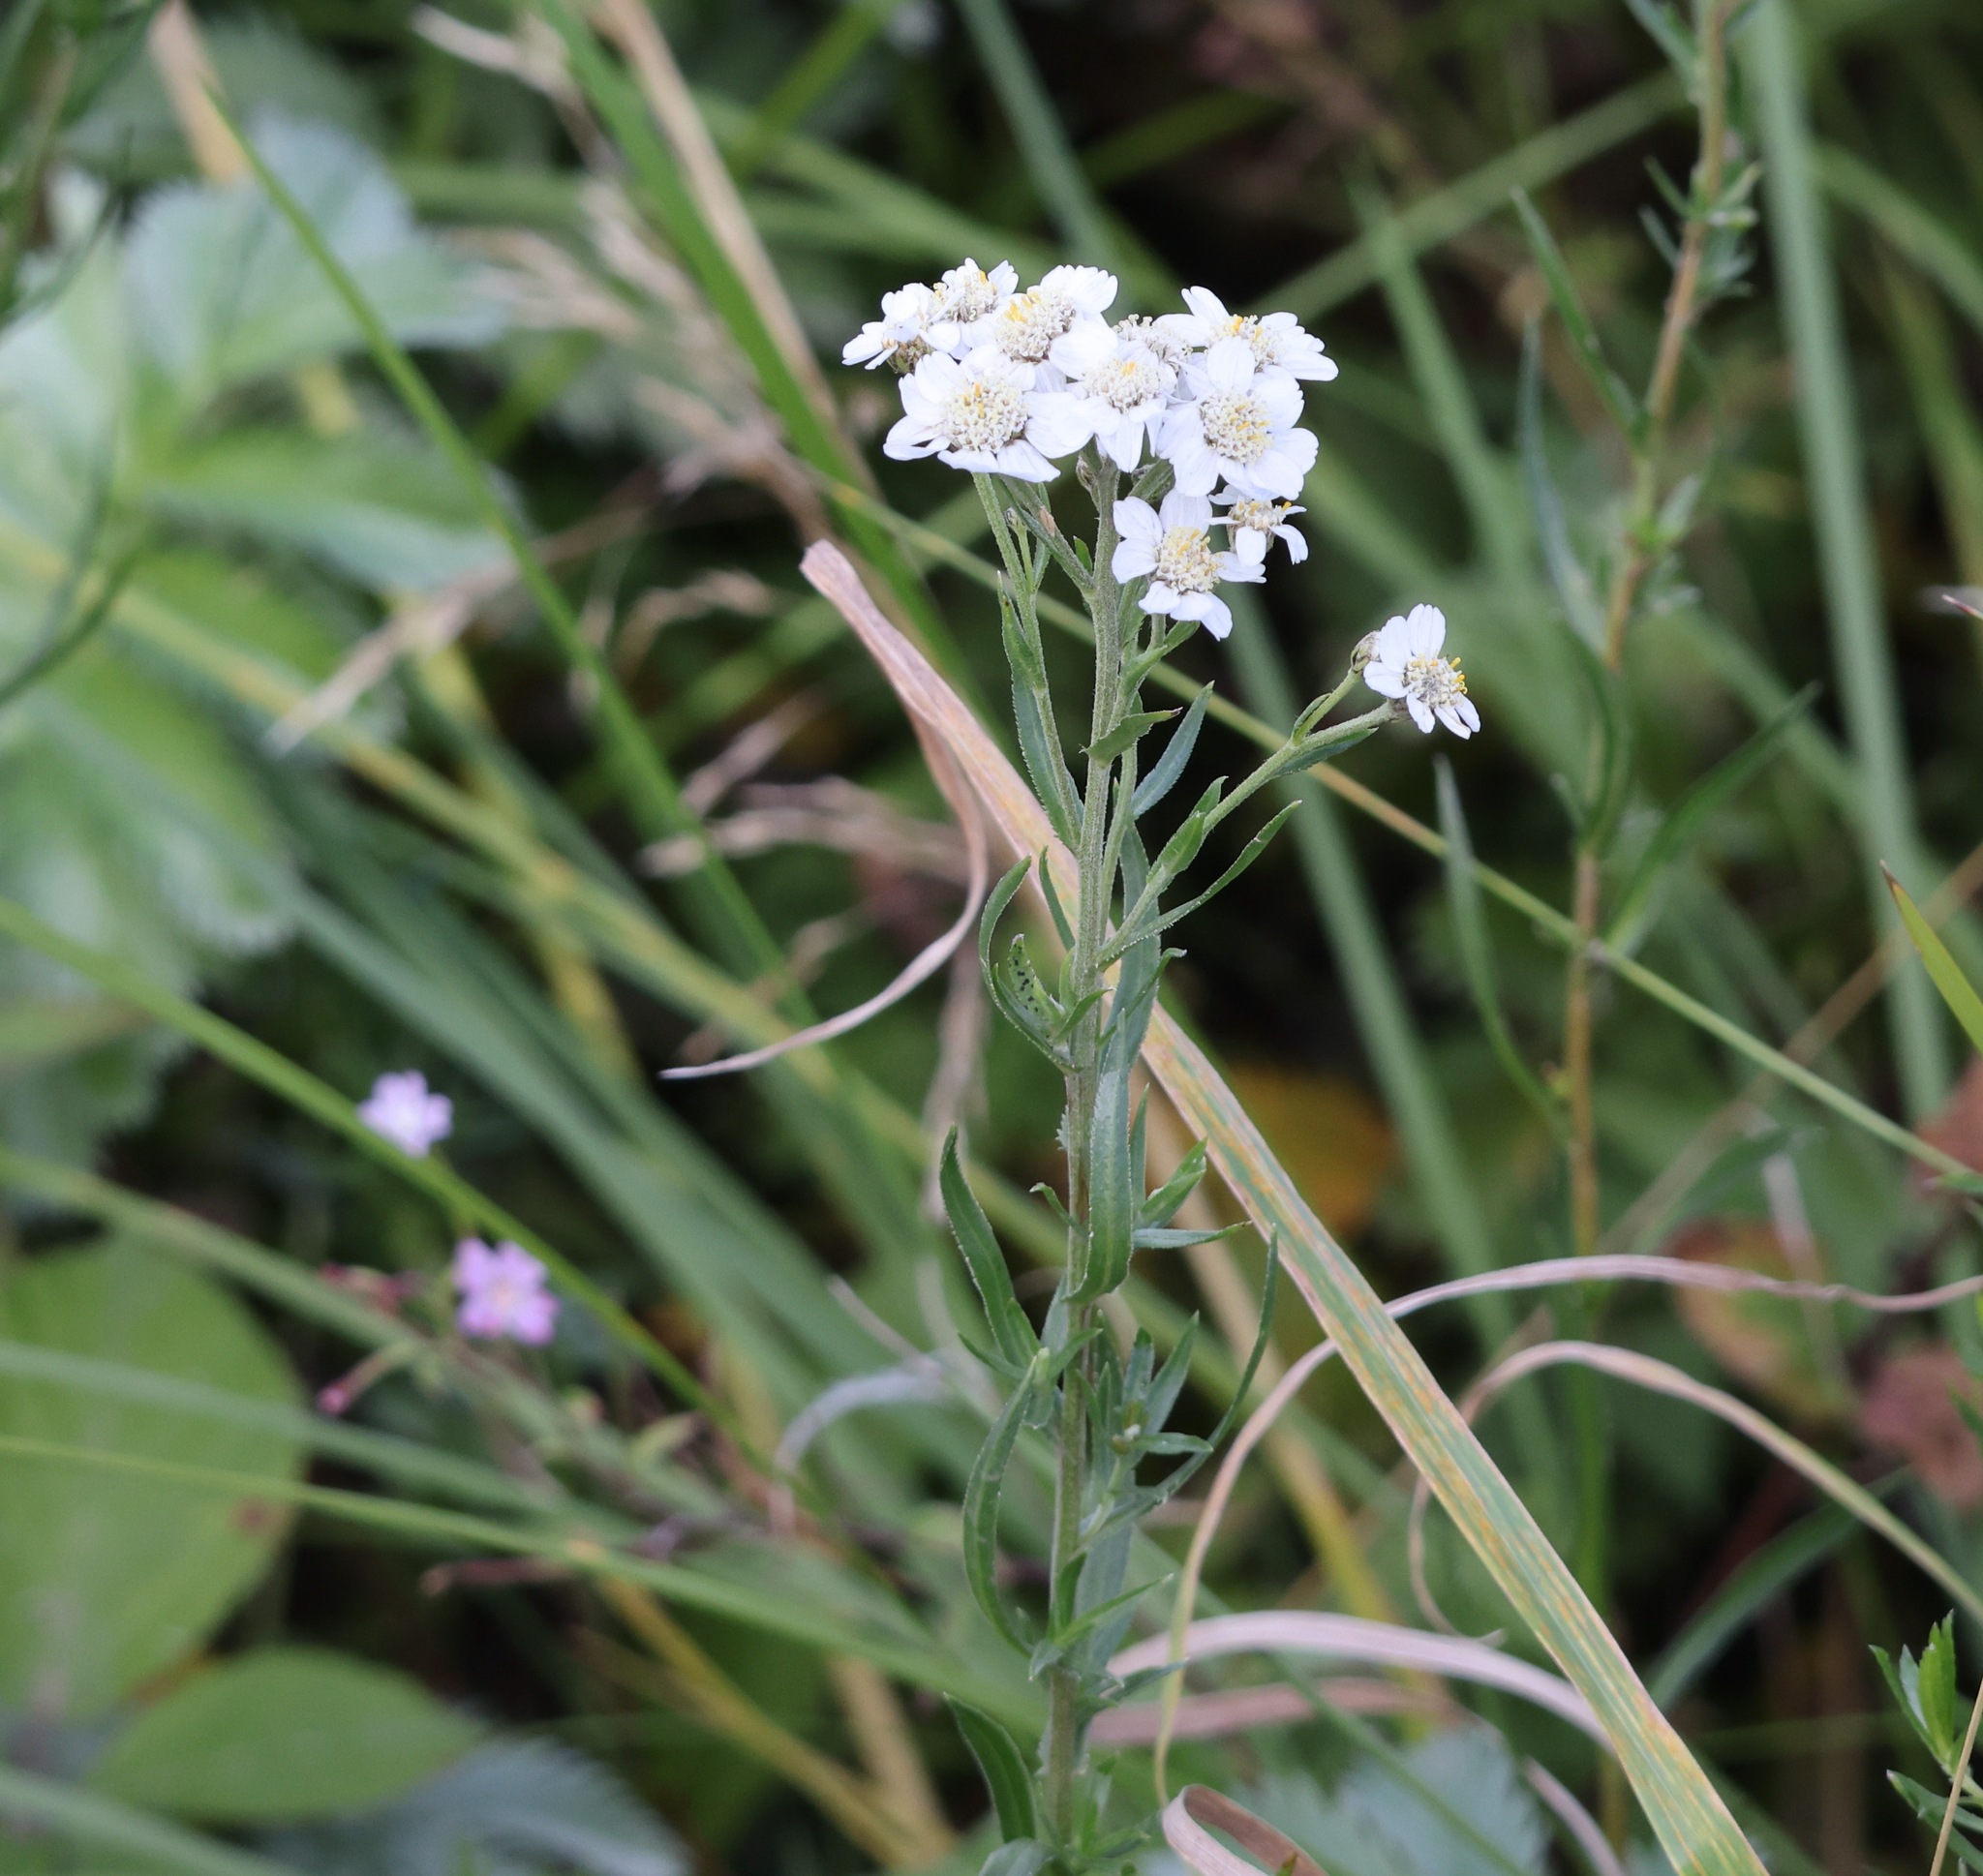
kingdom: Plantae
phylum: Tracheophyta
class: Magnoliopsida
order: Asterales
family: Asteraceae
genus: Achillea
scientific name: Achillea ptarmica
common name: Sneezeweed
